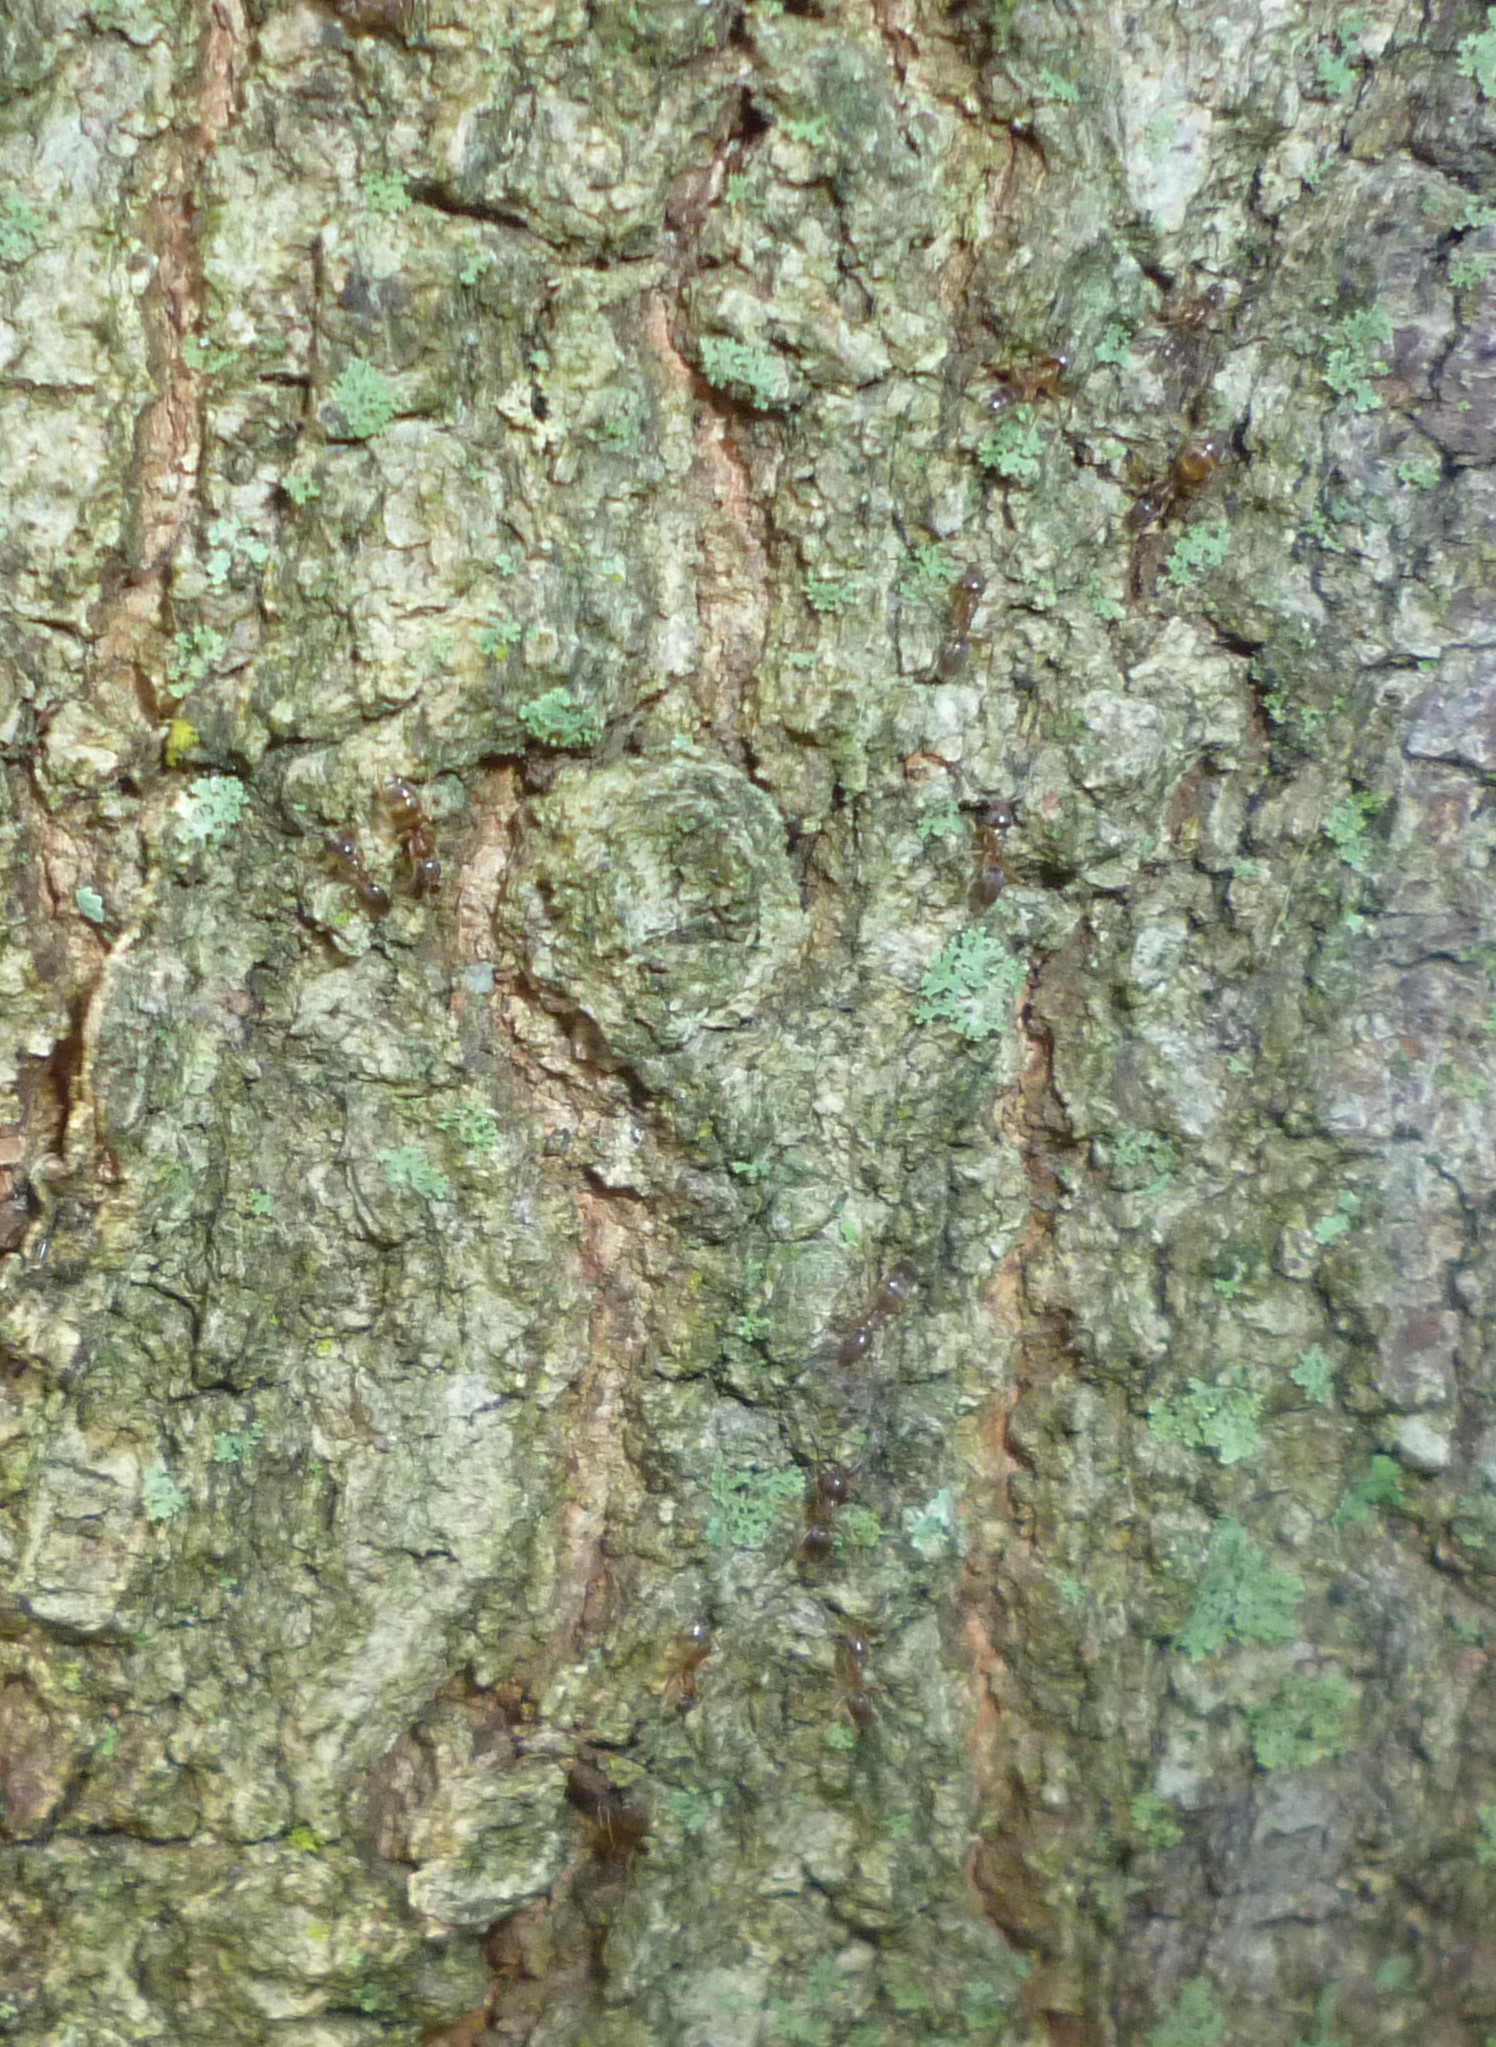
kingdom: Animalia
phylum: Arthropoda
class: Insecta
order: Hymenoptera
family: Formicidae
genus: Linepithema
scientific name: Linepithema humile
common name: Argentine ant
